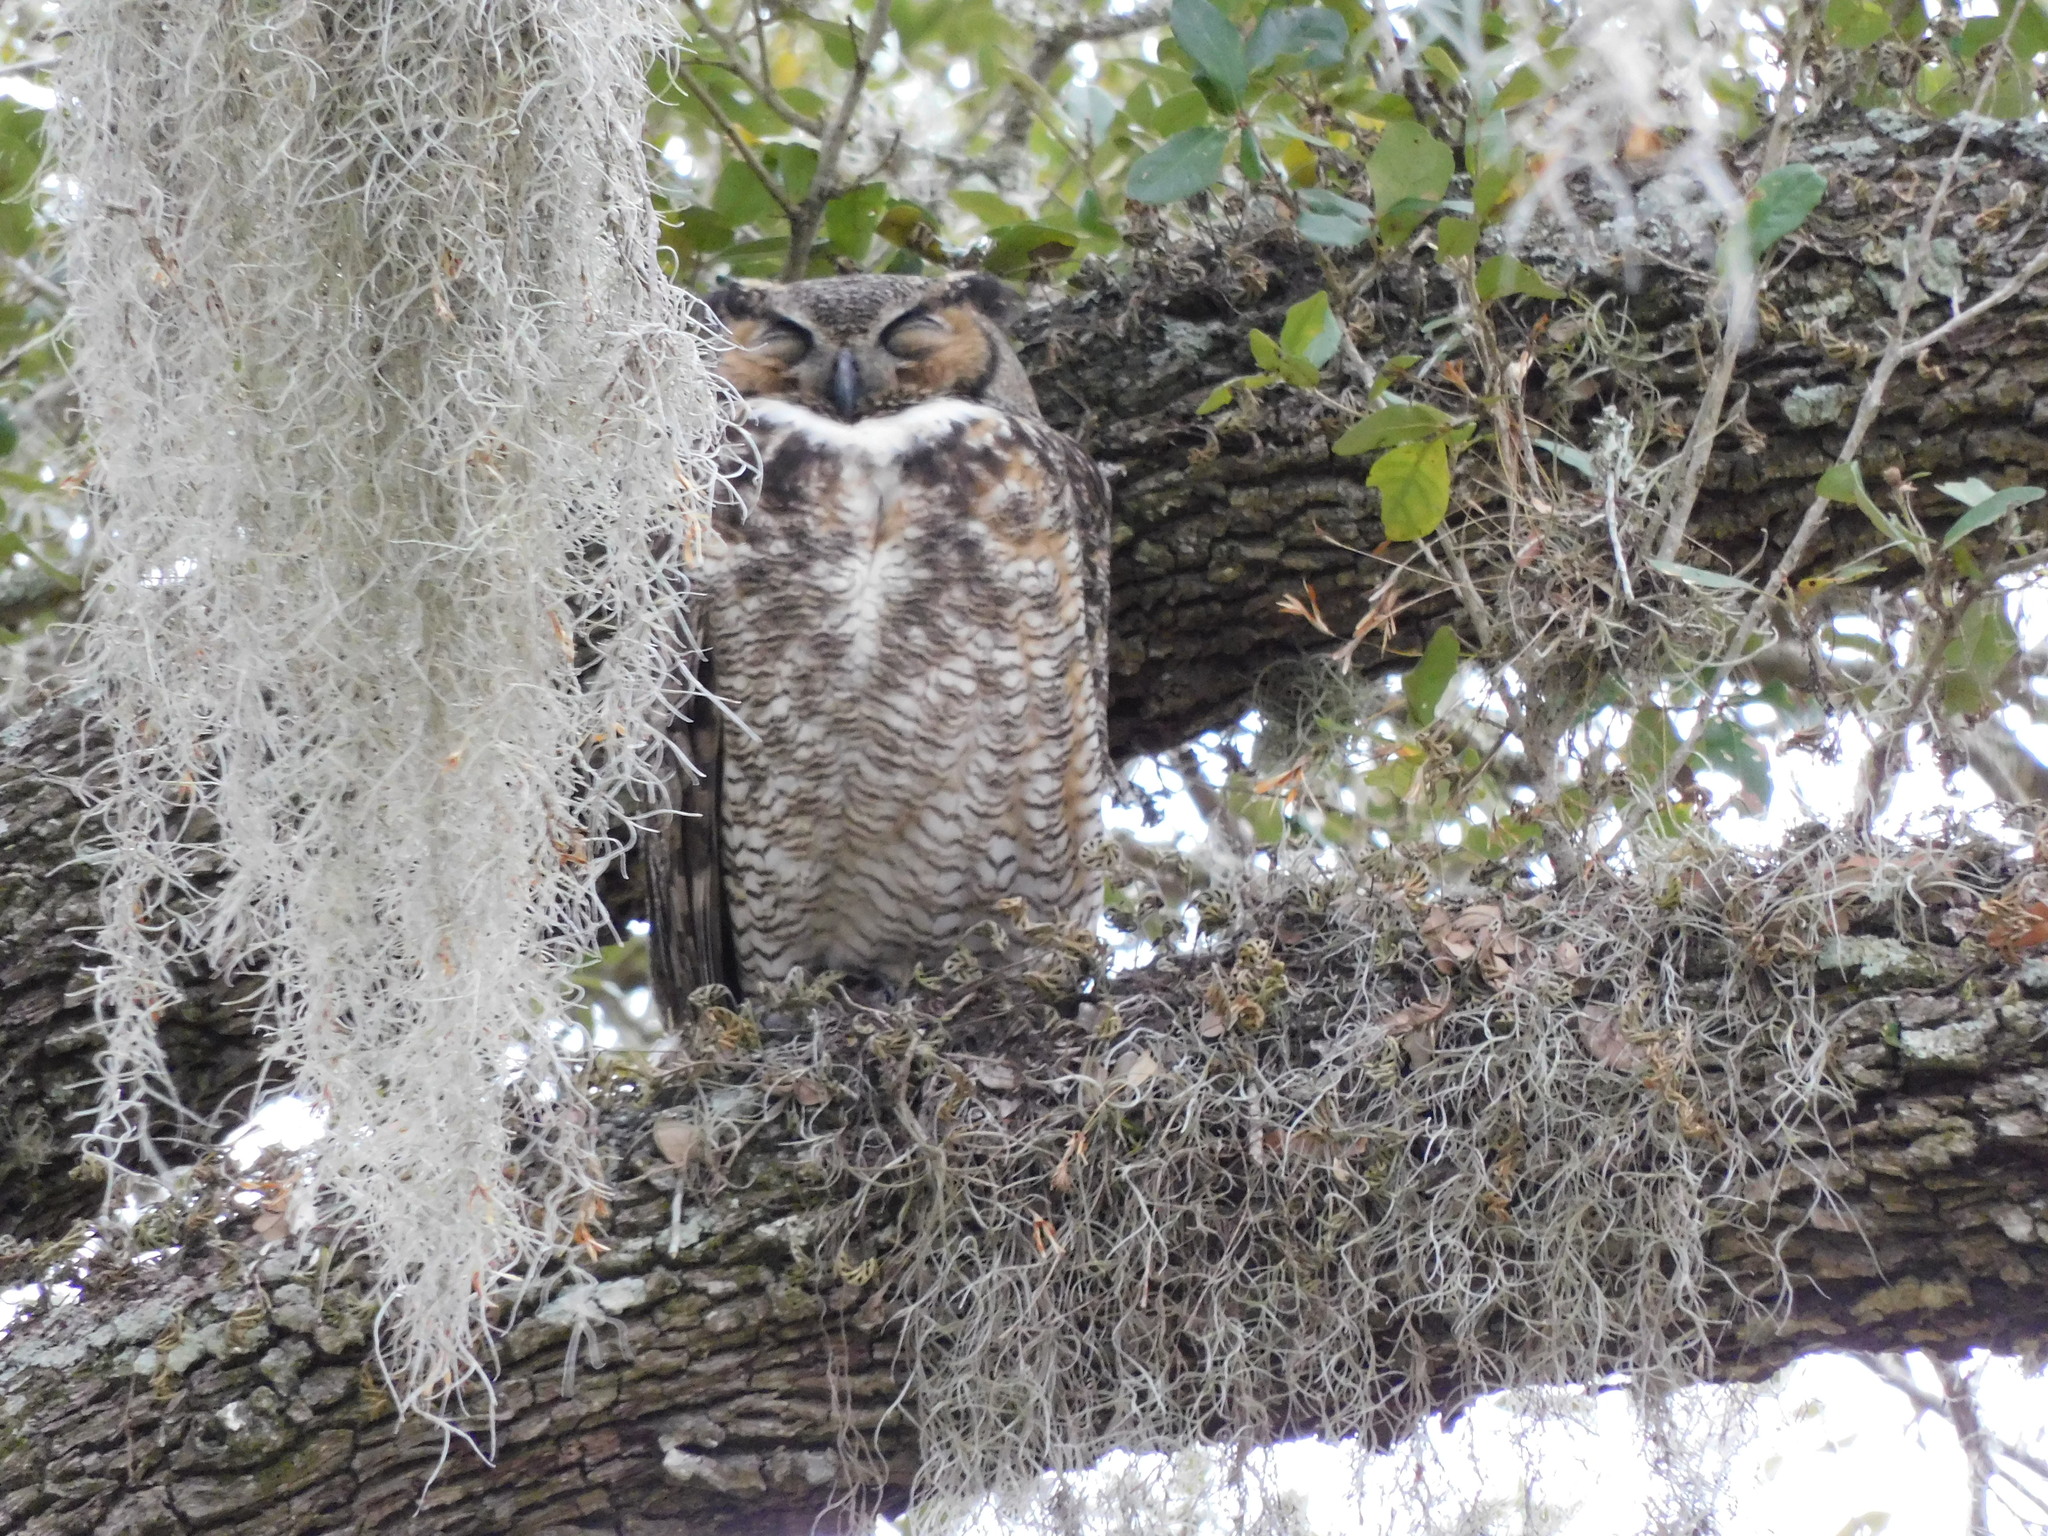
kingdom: Animalia
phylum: Chordata
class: Aves
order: Strigiformes
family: Strigidae
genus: Bubo
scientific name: Bubo virginianus
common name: Great horned owl
